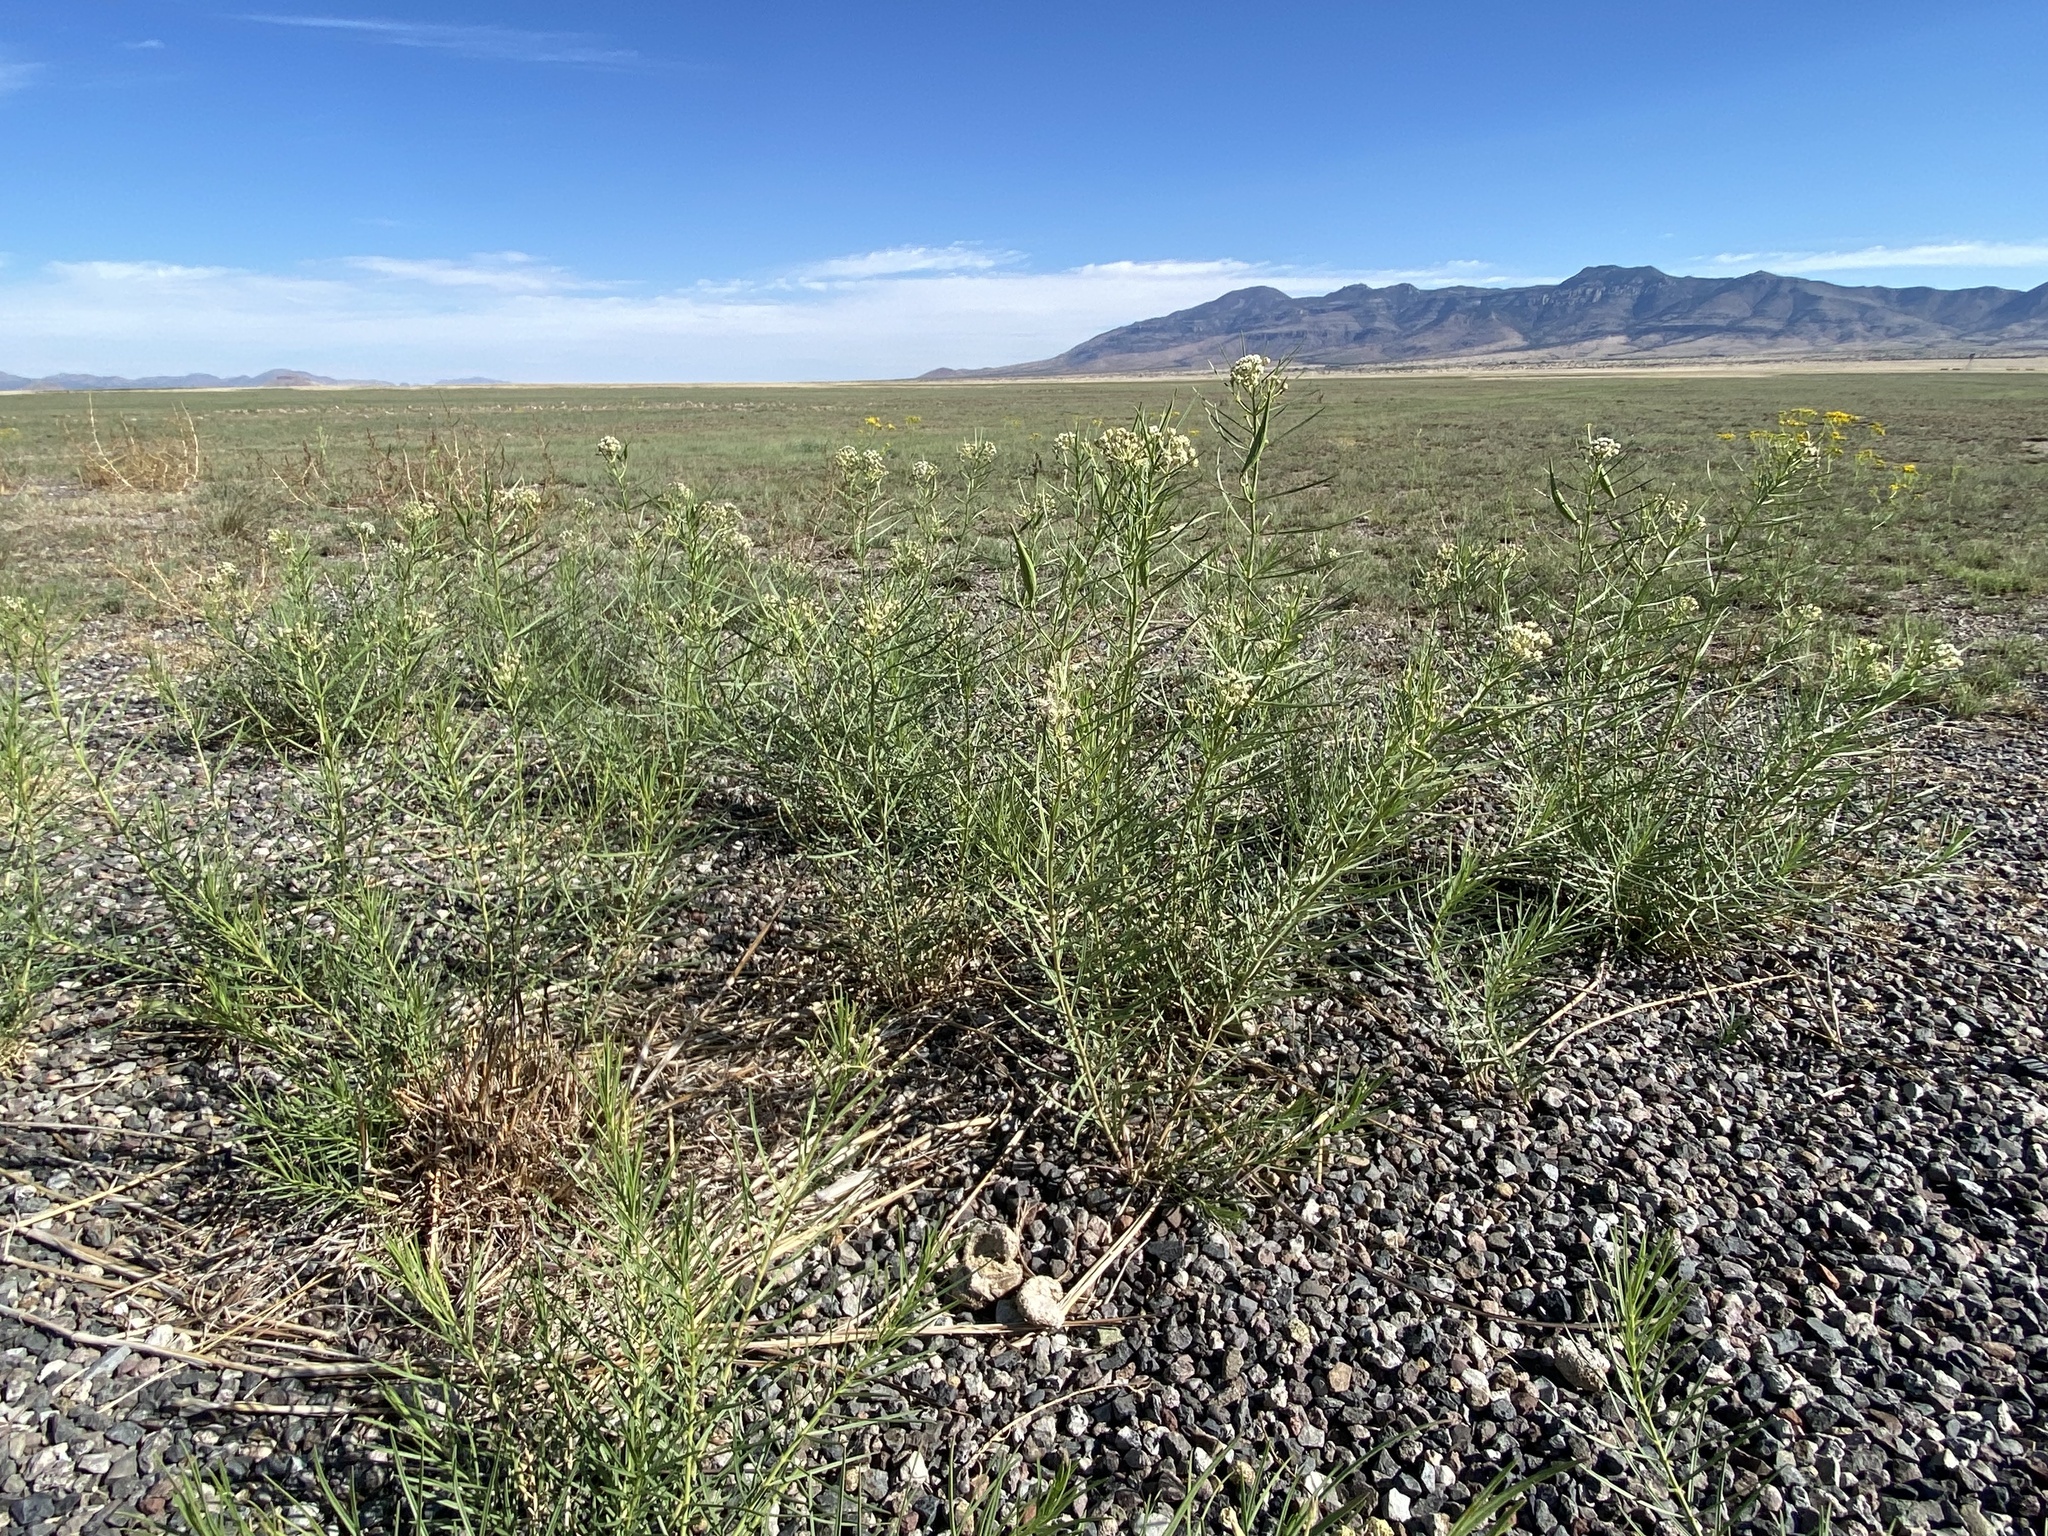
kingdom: Plantae
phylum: Tracheophyta
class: Magnoliopsida
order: Gentianales
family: Apocynaceae
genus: Asclepias
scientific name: Asclepias subverticillata
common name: Horsetail milkweed
